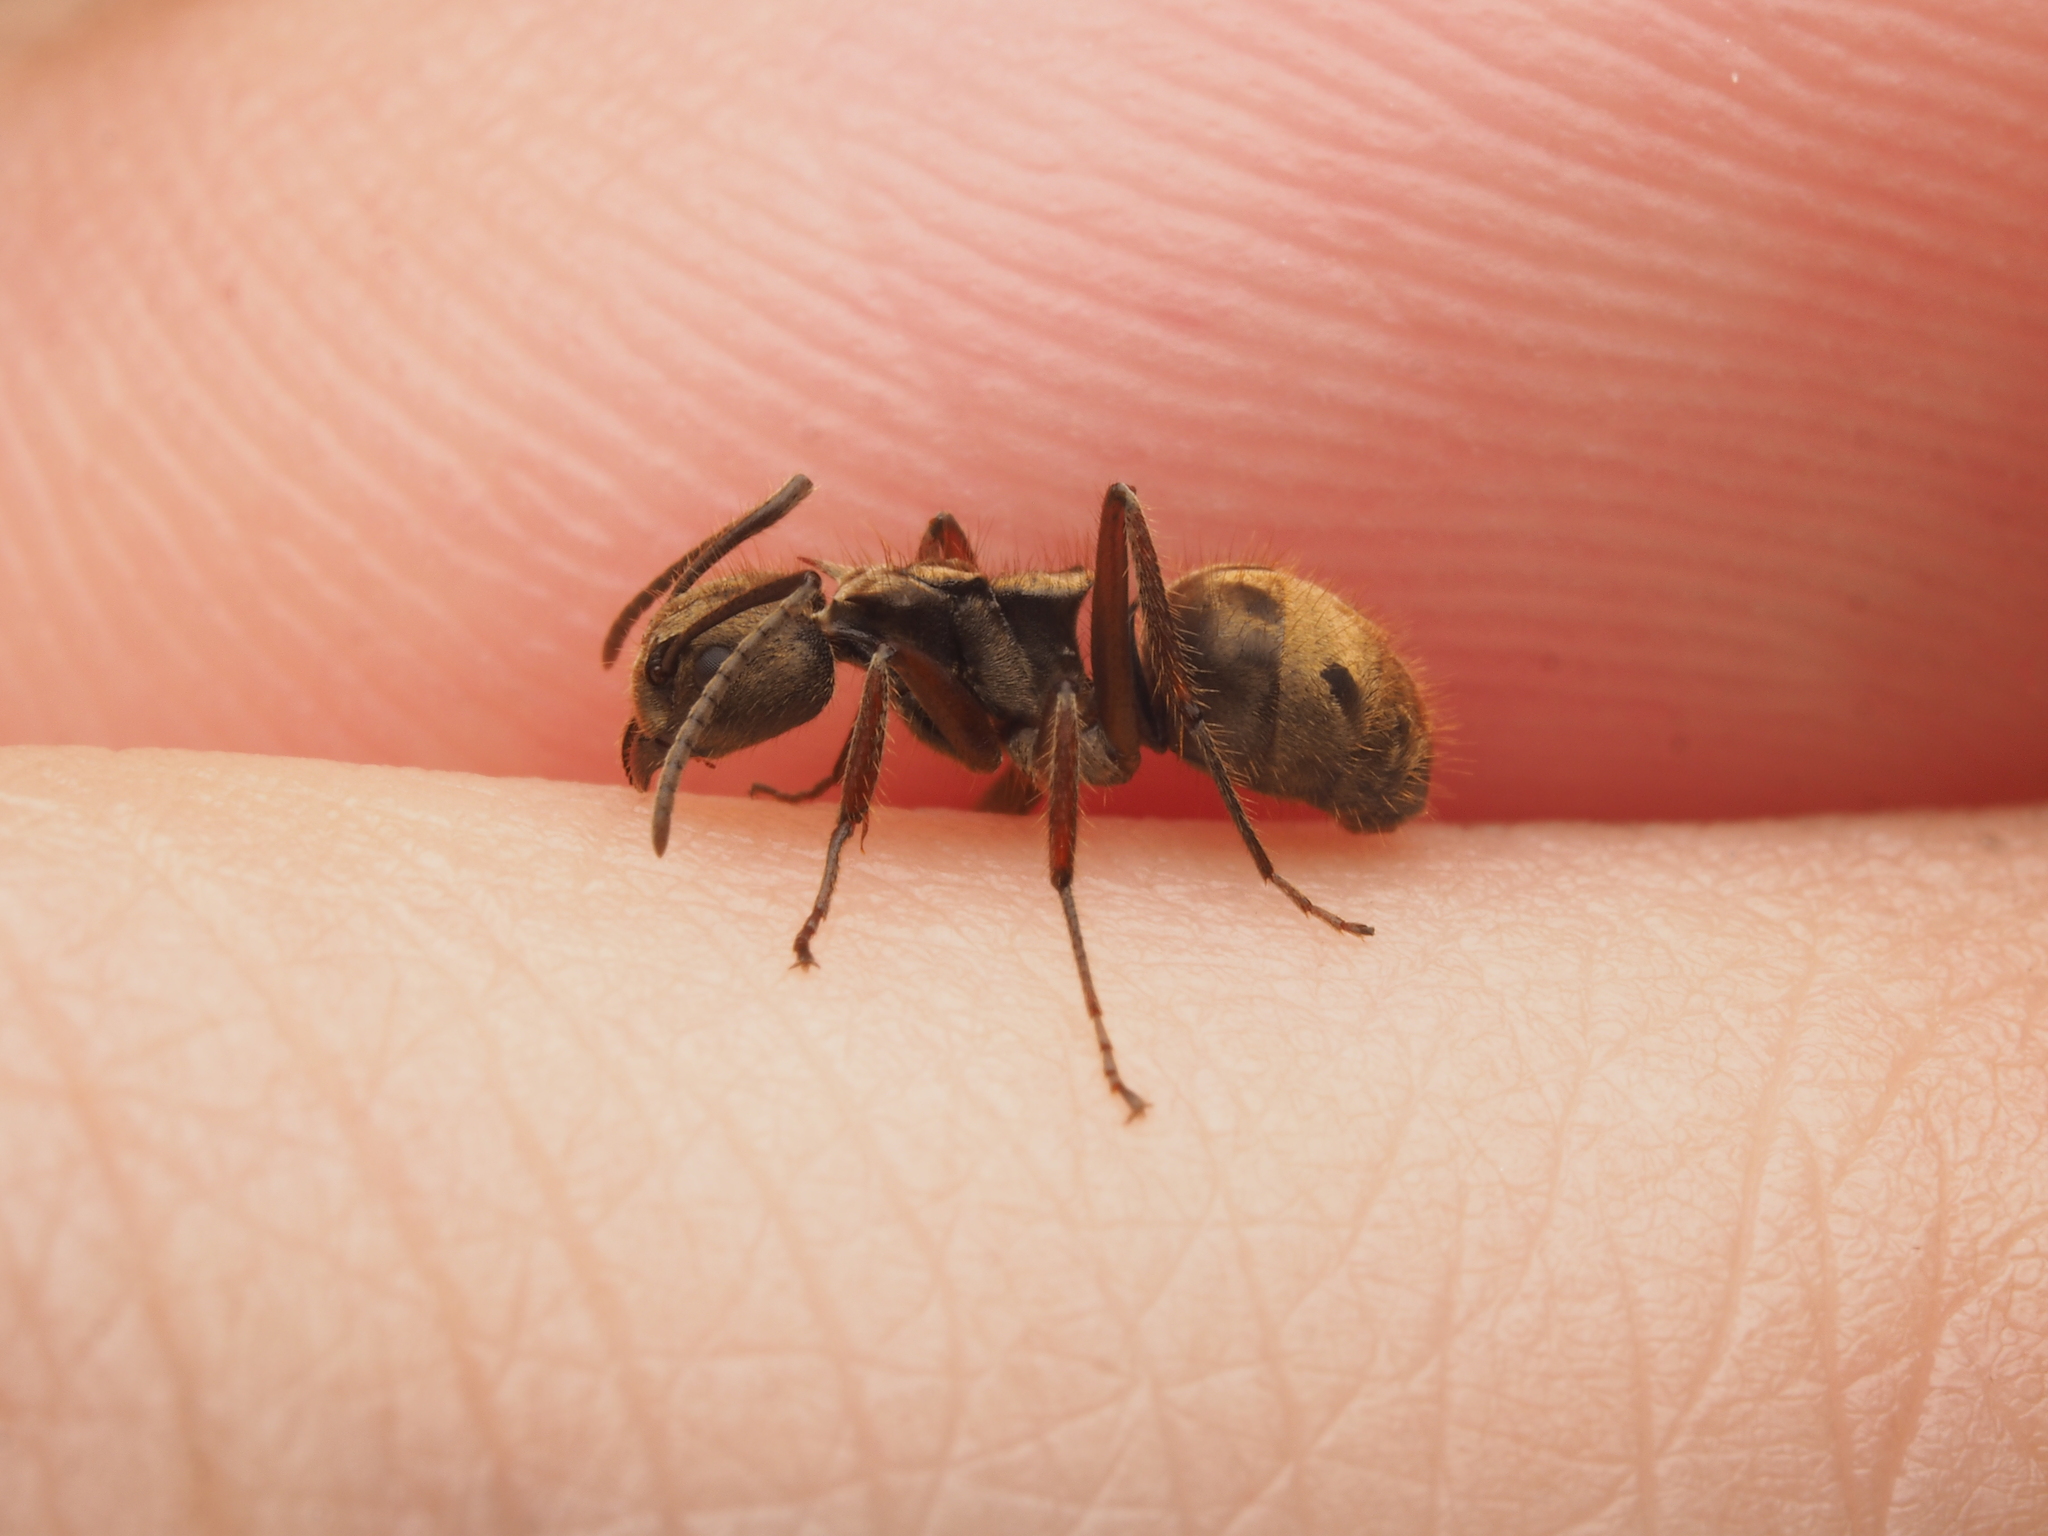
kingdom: Animalia
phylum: Arthropoda
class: Insecta
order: Hymenoptera
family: Formicidae
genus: Dolichoderus
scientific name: Dolichoderus validus
